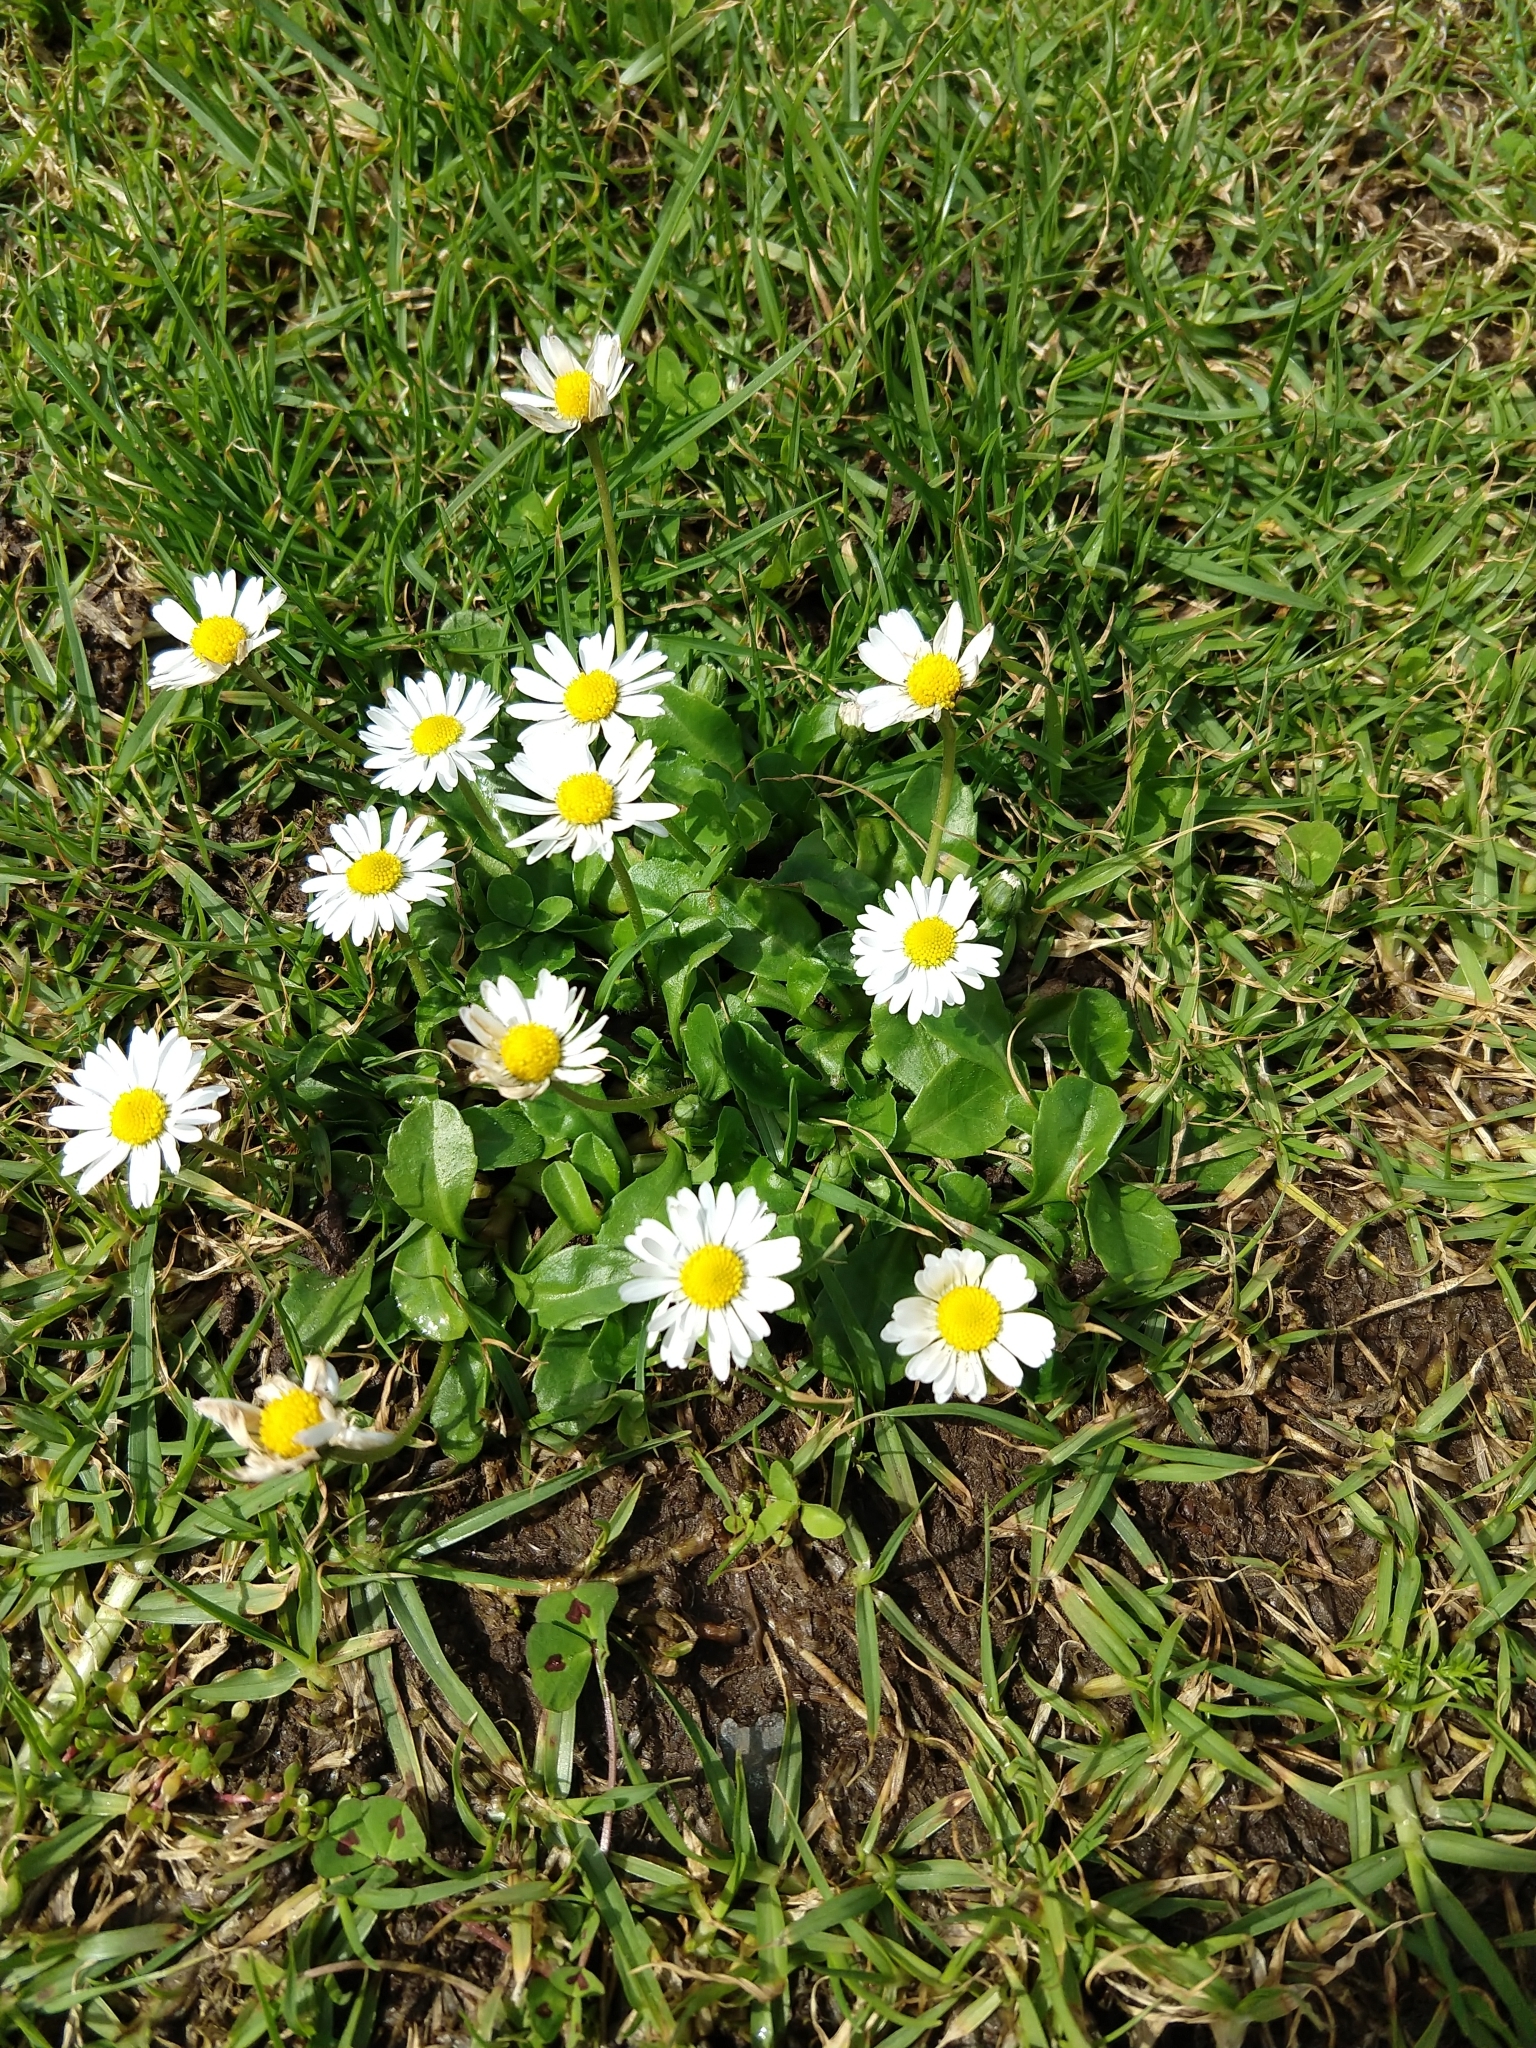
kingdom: Plantae
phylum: Tracheophyta
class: Magnoliopsida
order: Asterales
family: Asteraceae
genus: Bellis
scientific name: Bellis perennis
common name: Lawndaisy
